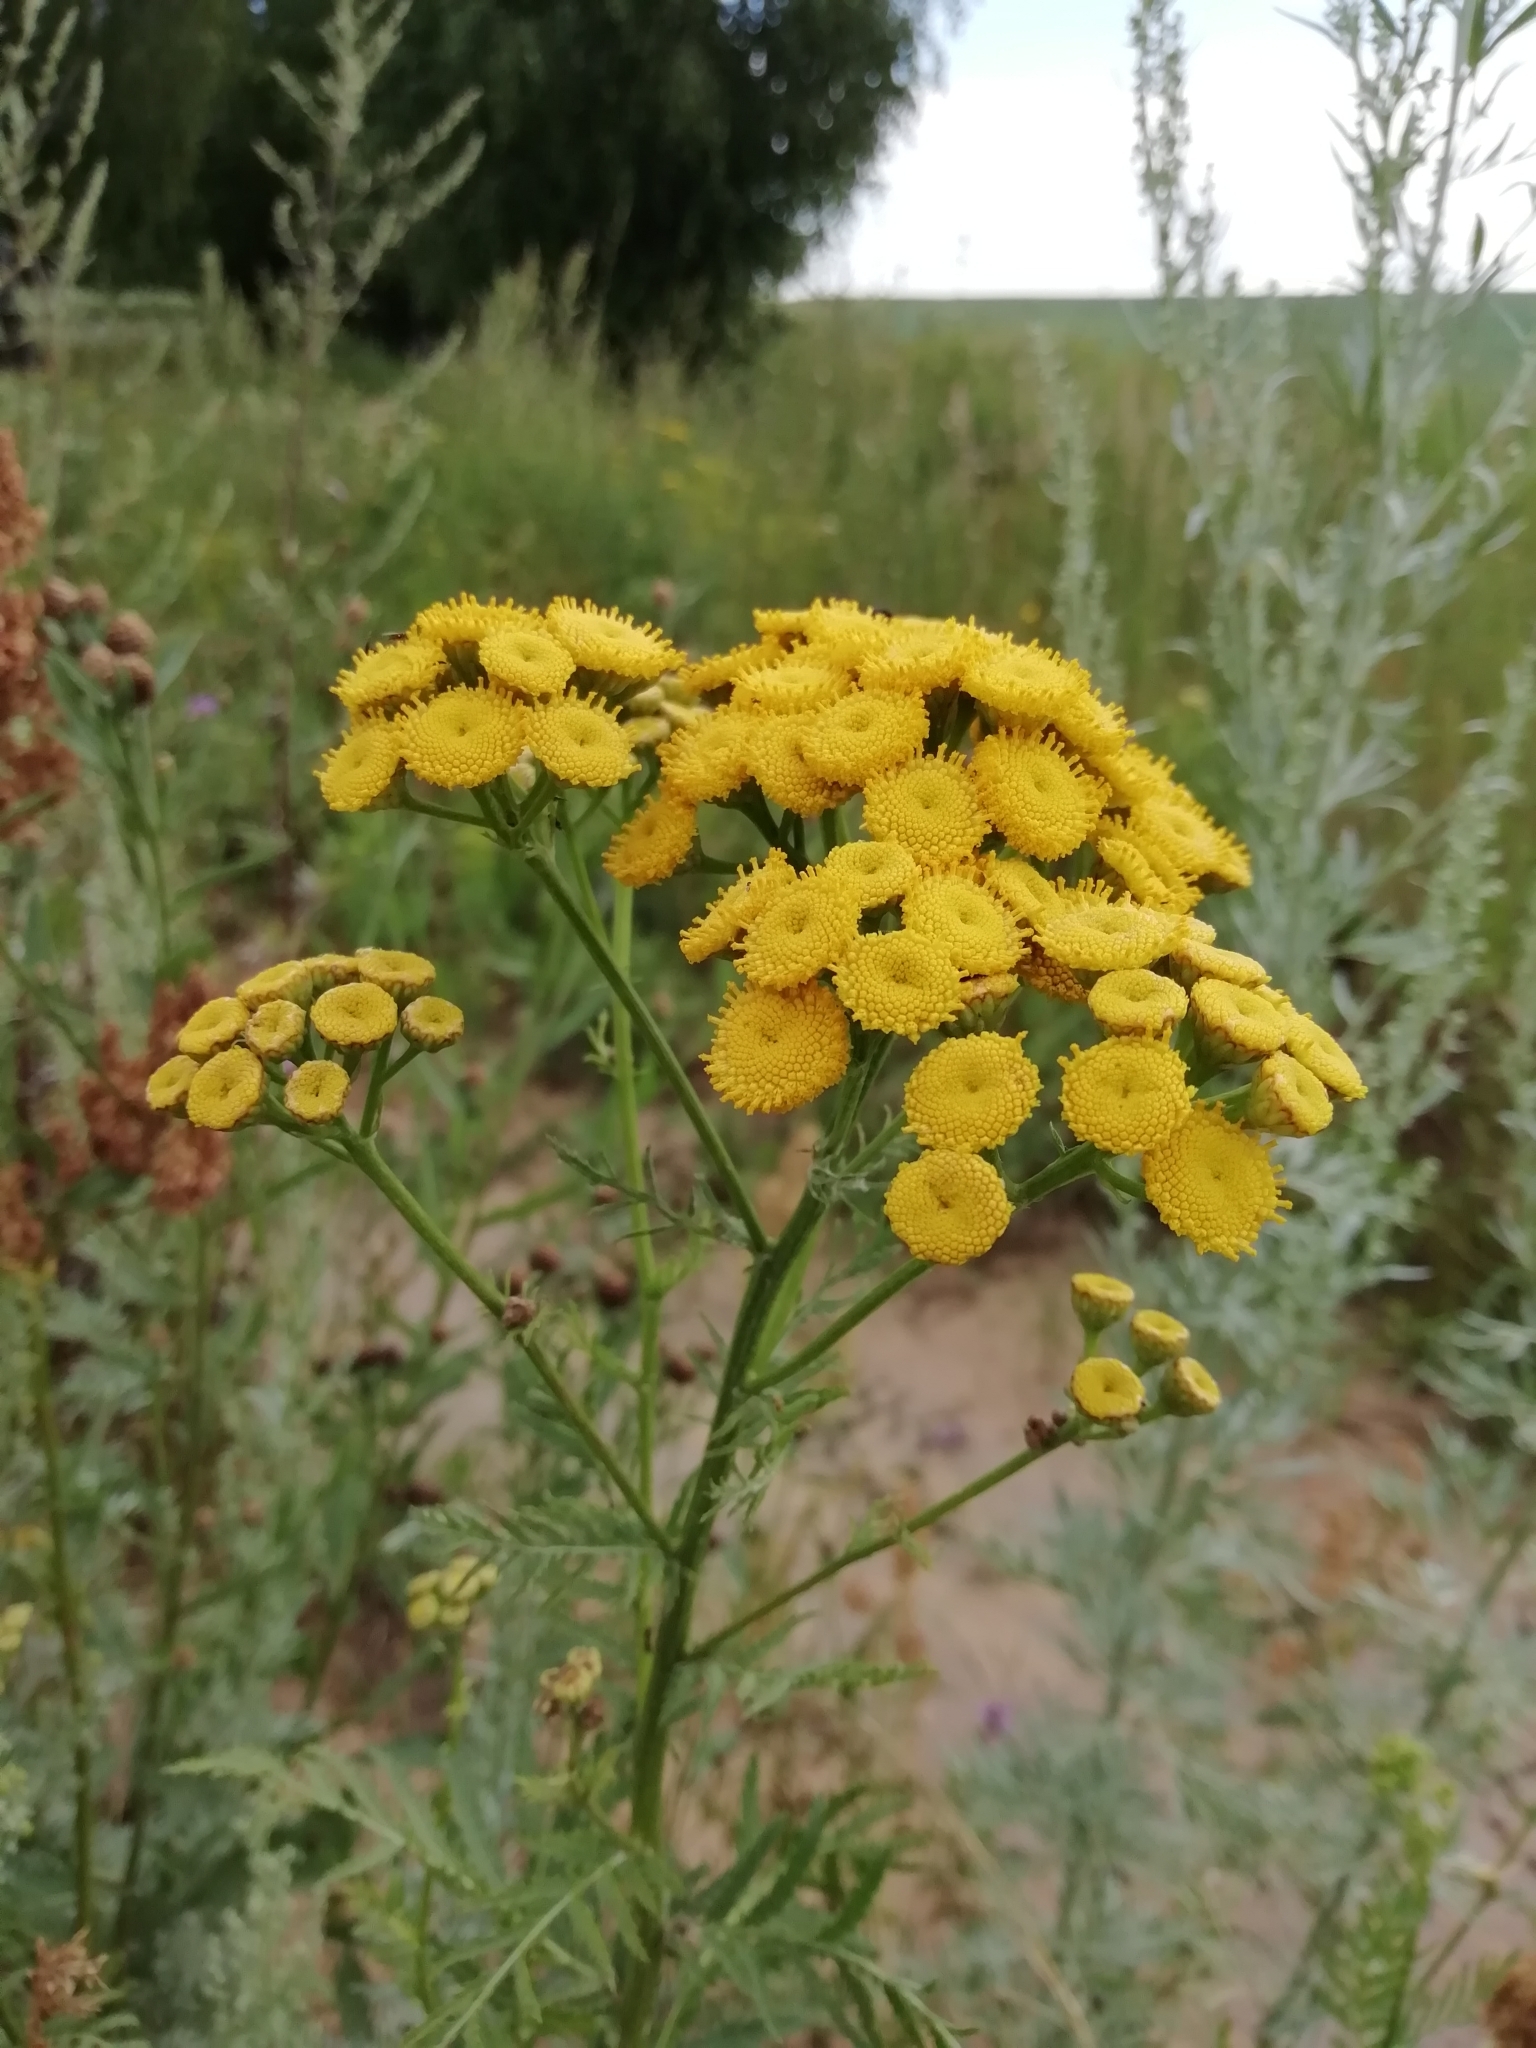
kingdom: Plantae
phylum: Tracheophyta
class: Magnoliopsida
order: Asterales
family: Asteraceae
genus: Tanacetum
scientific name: Tanacetum vulgare
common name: Common tansy
